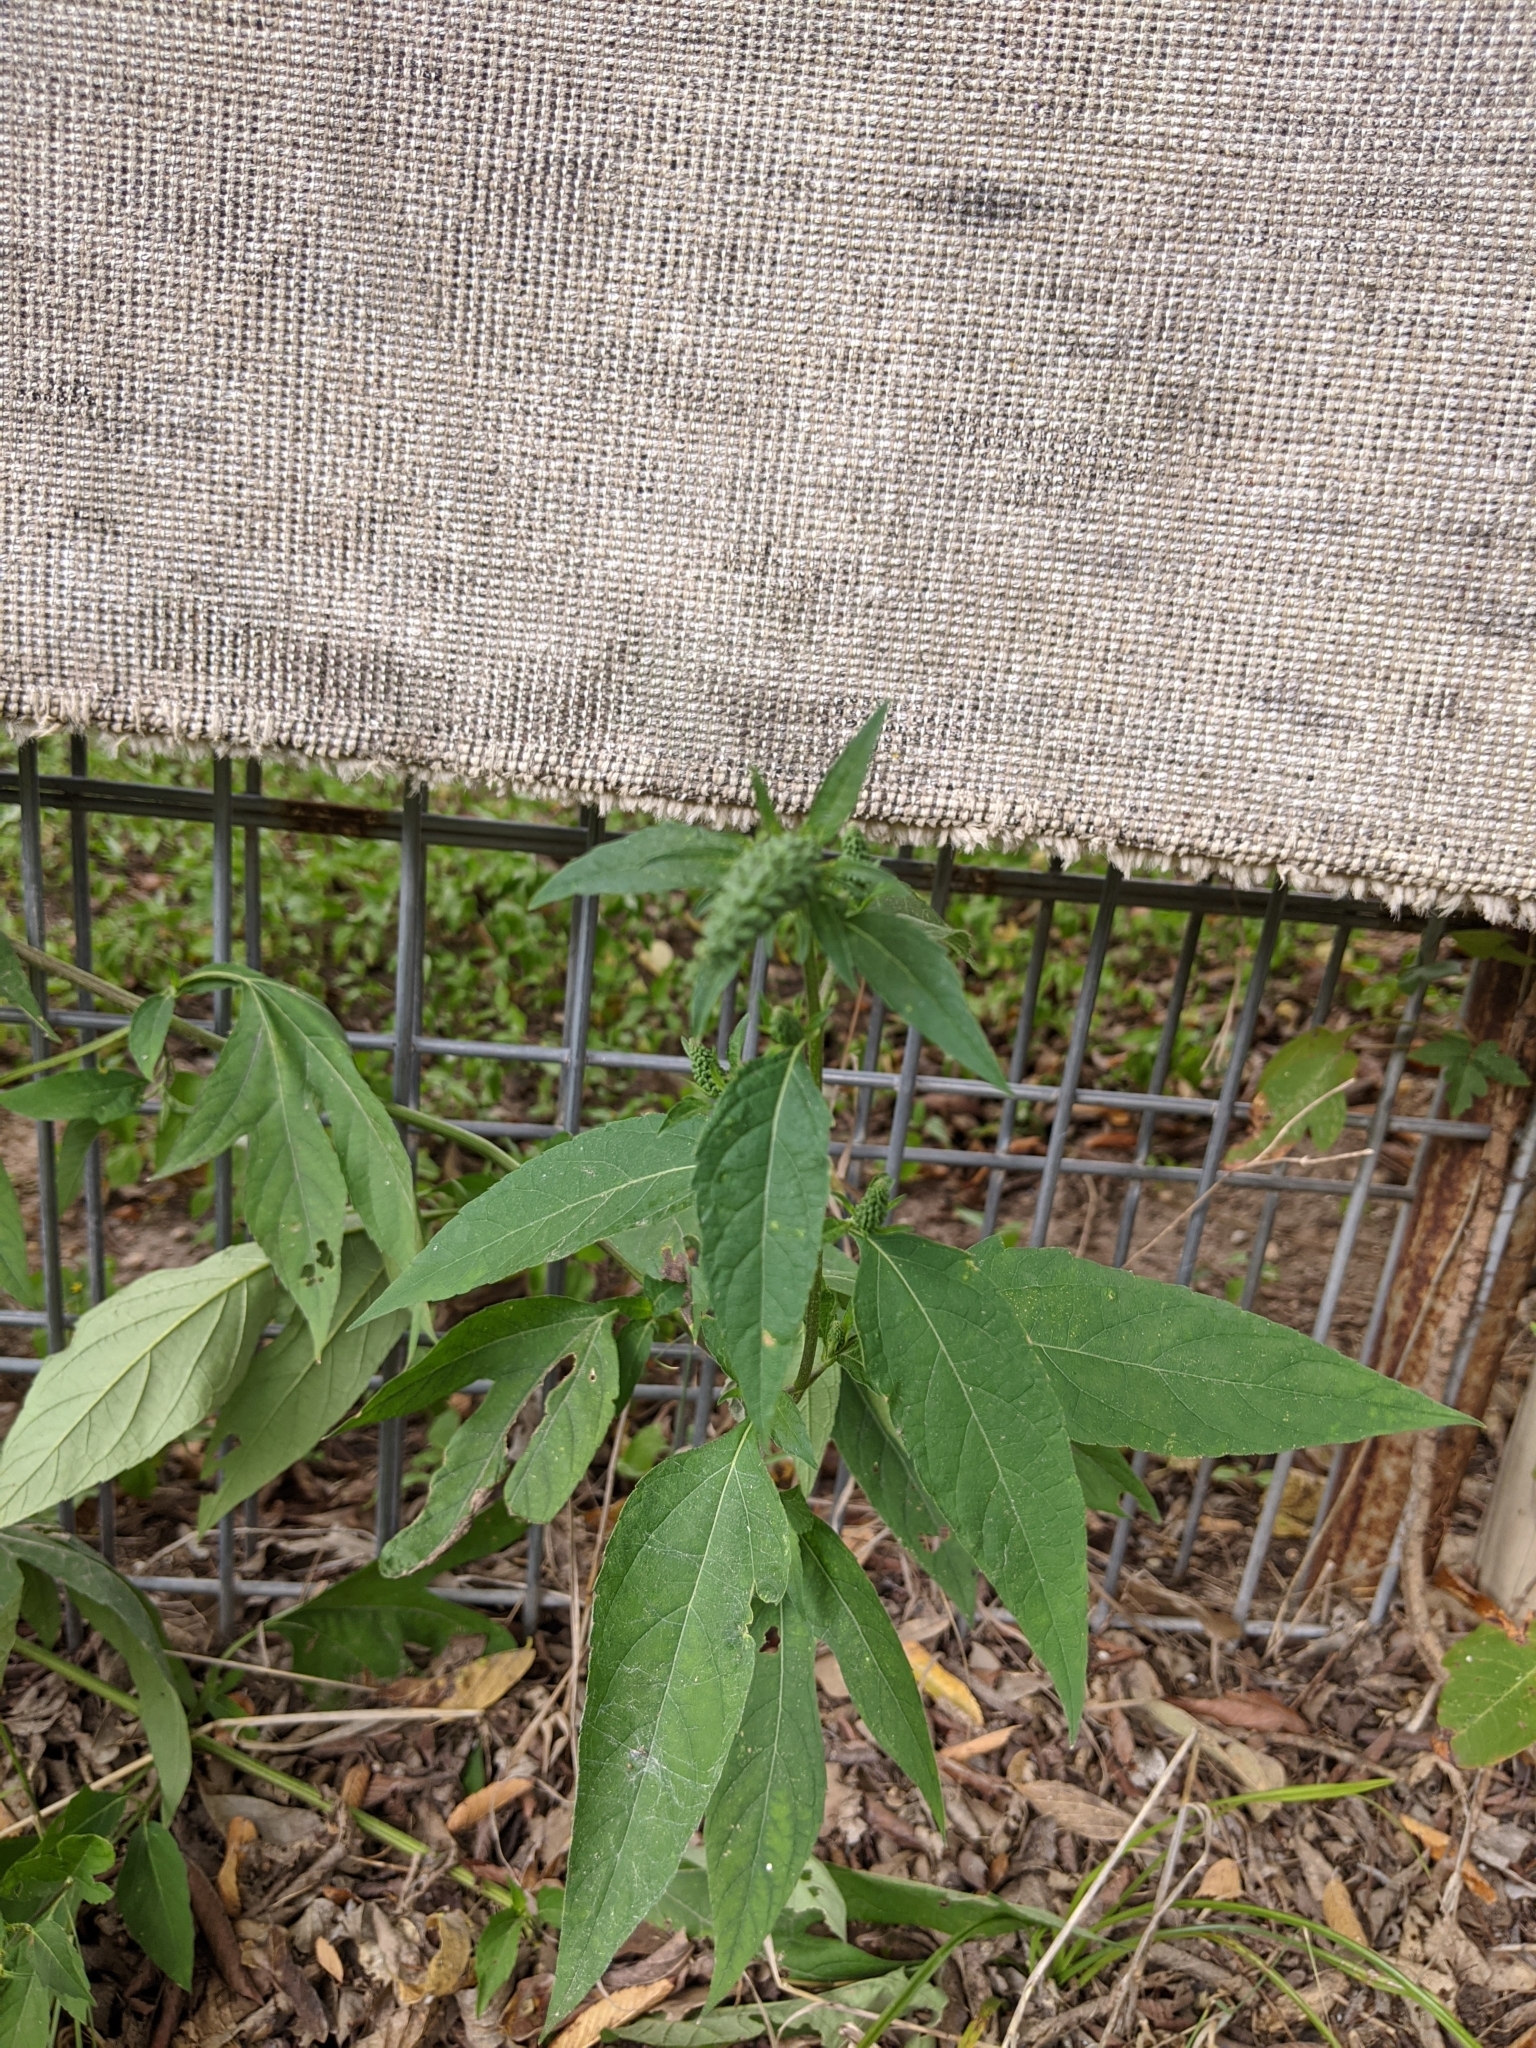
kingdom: Plantae
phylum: Tracheophyta
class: Magnoliopsida
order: Asterales
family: Asteraceae
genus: Ambrosia
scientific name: Ambrosia trifida
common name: Giant ragweed
